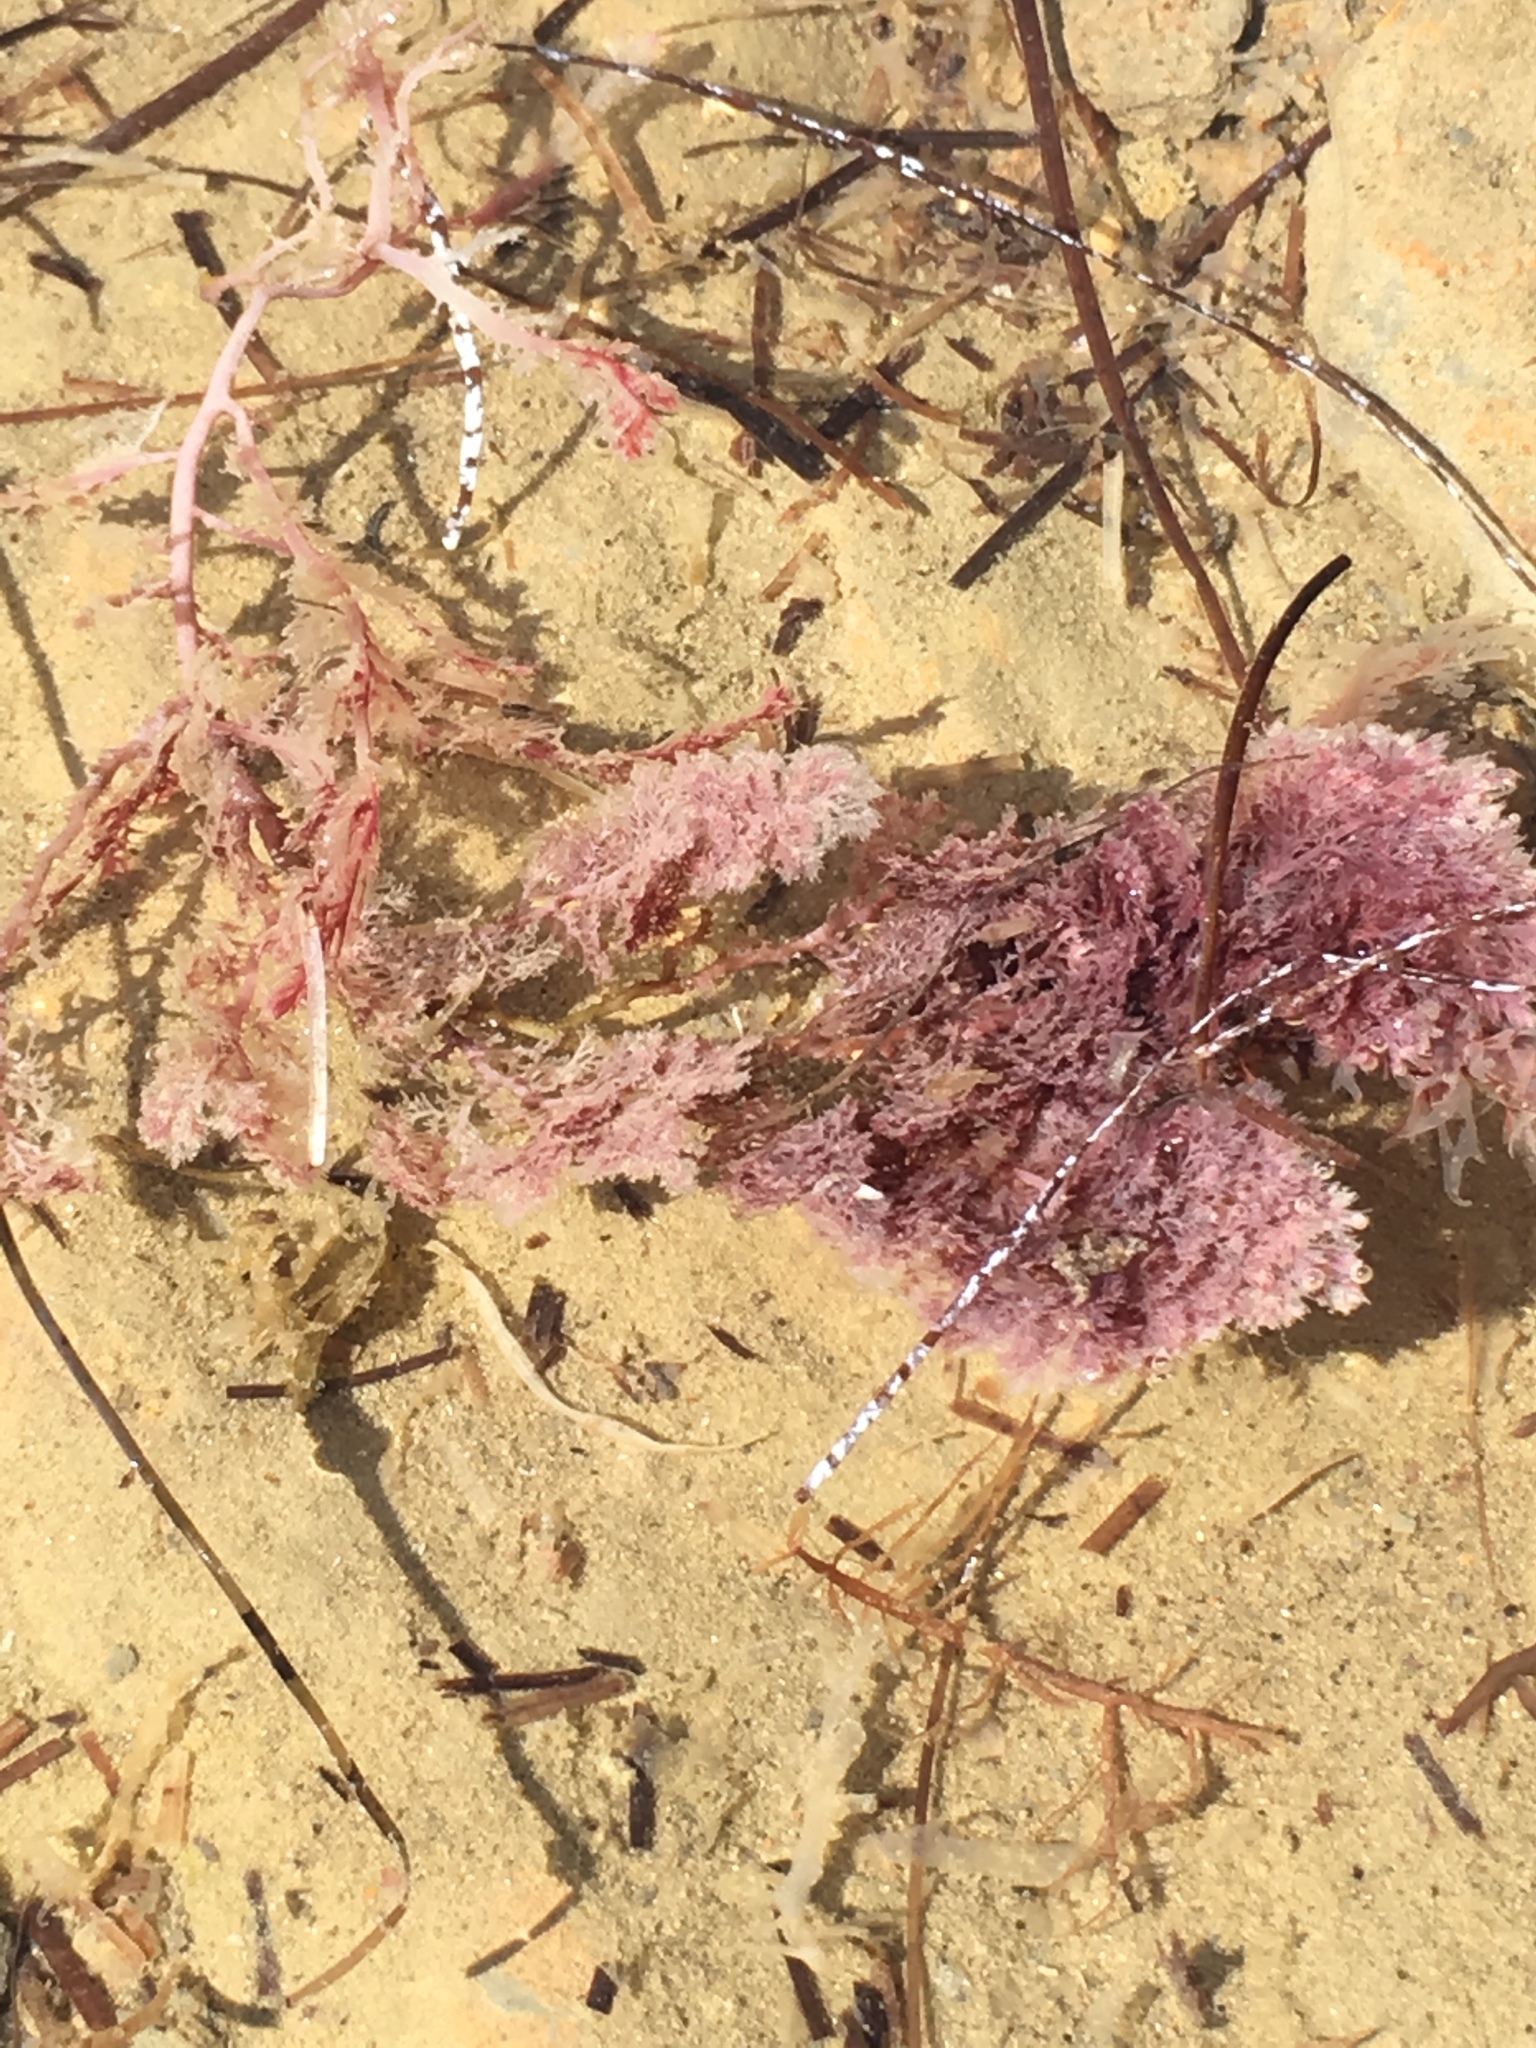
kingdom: Plantae
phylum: Rhodophyta
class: Florideophyceae
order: Plocamiales
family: Plocamiaceae
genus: Plocamium
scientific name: Plocamium cartilagineum
